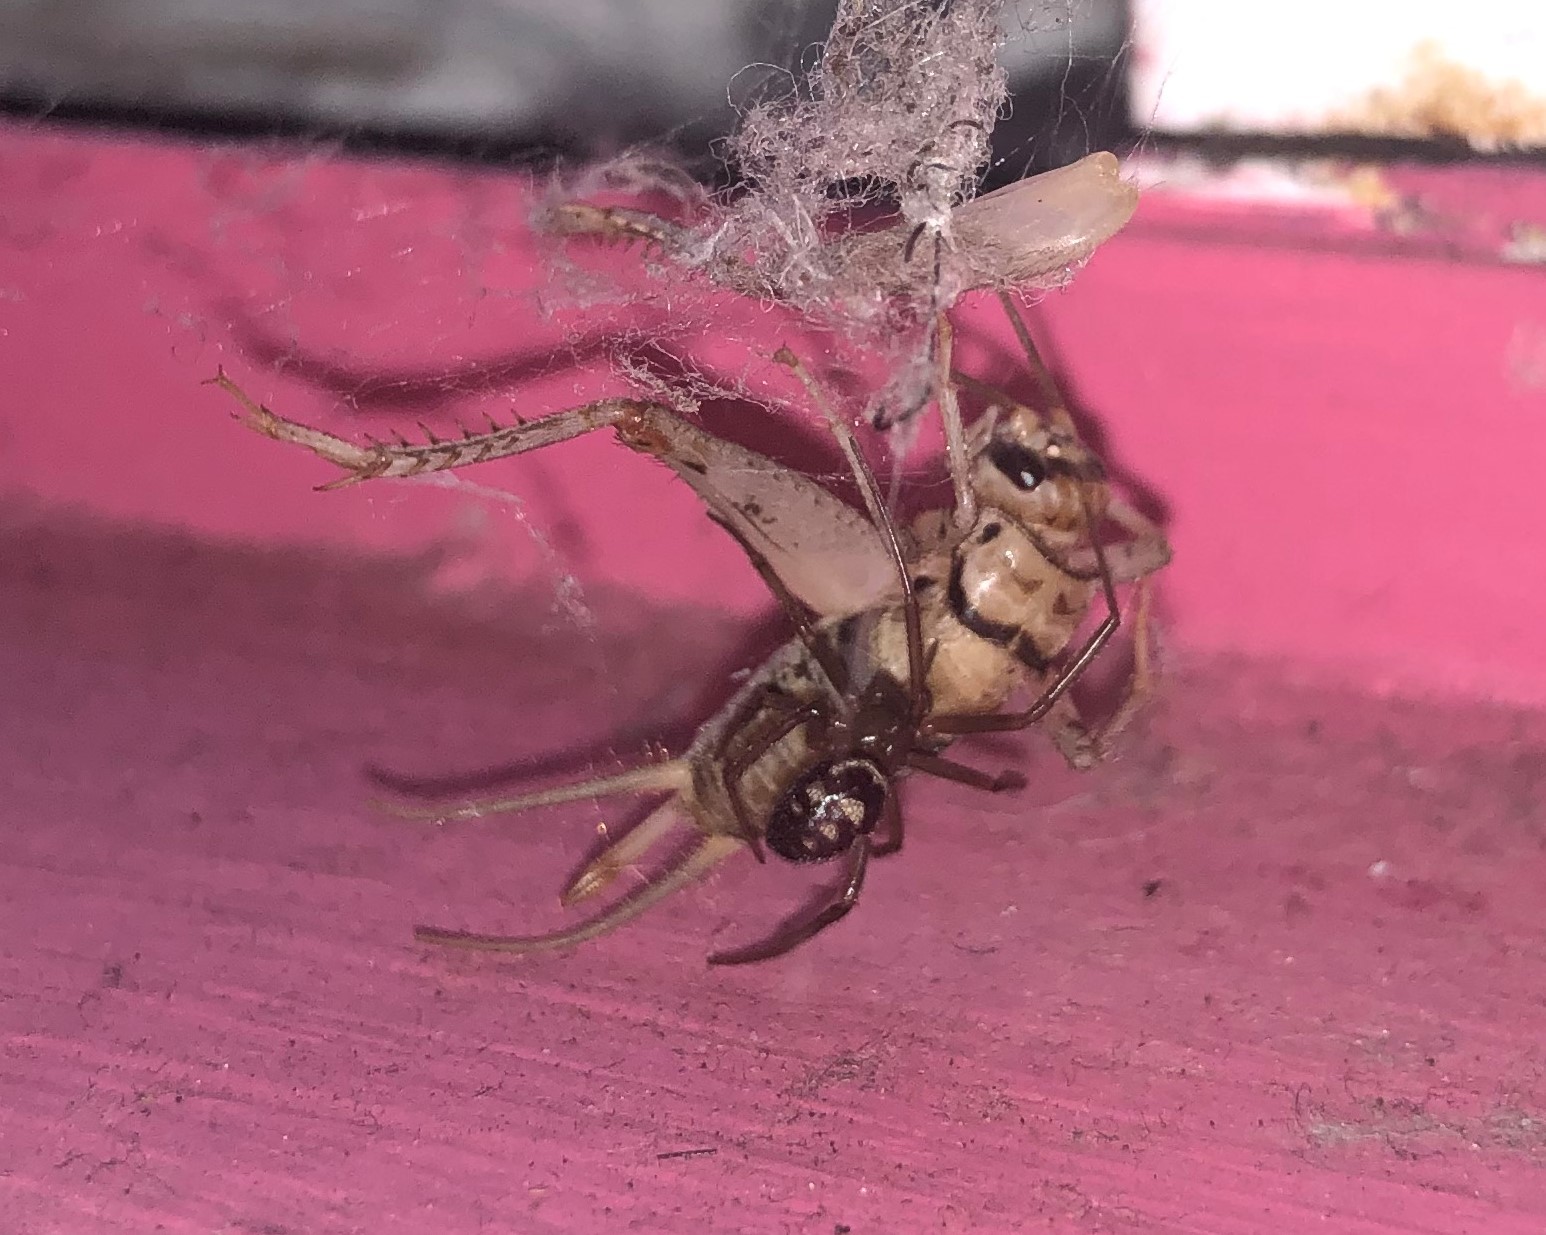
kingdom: Animalia
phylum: Arthropoda
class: Arachnida
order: Araneae
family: Theridiidae
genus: Steatoda
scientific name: Steatoda grossa
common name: False black widow
